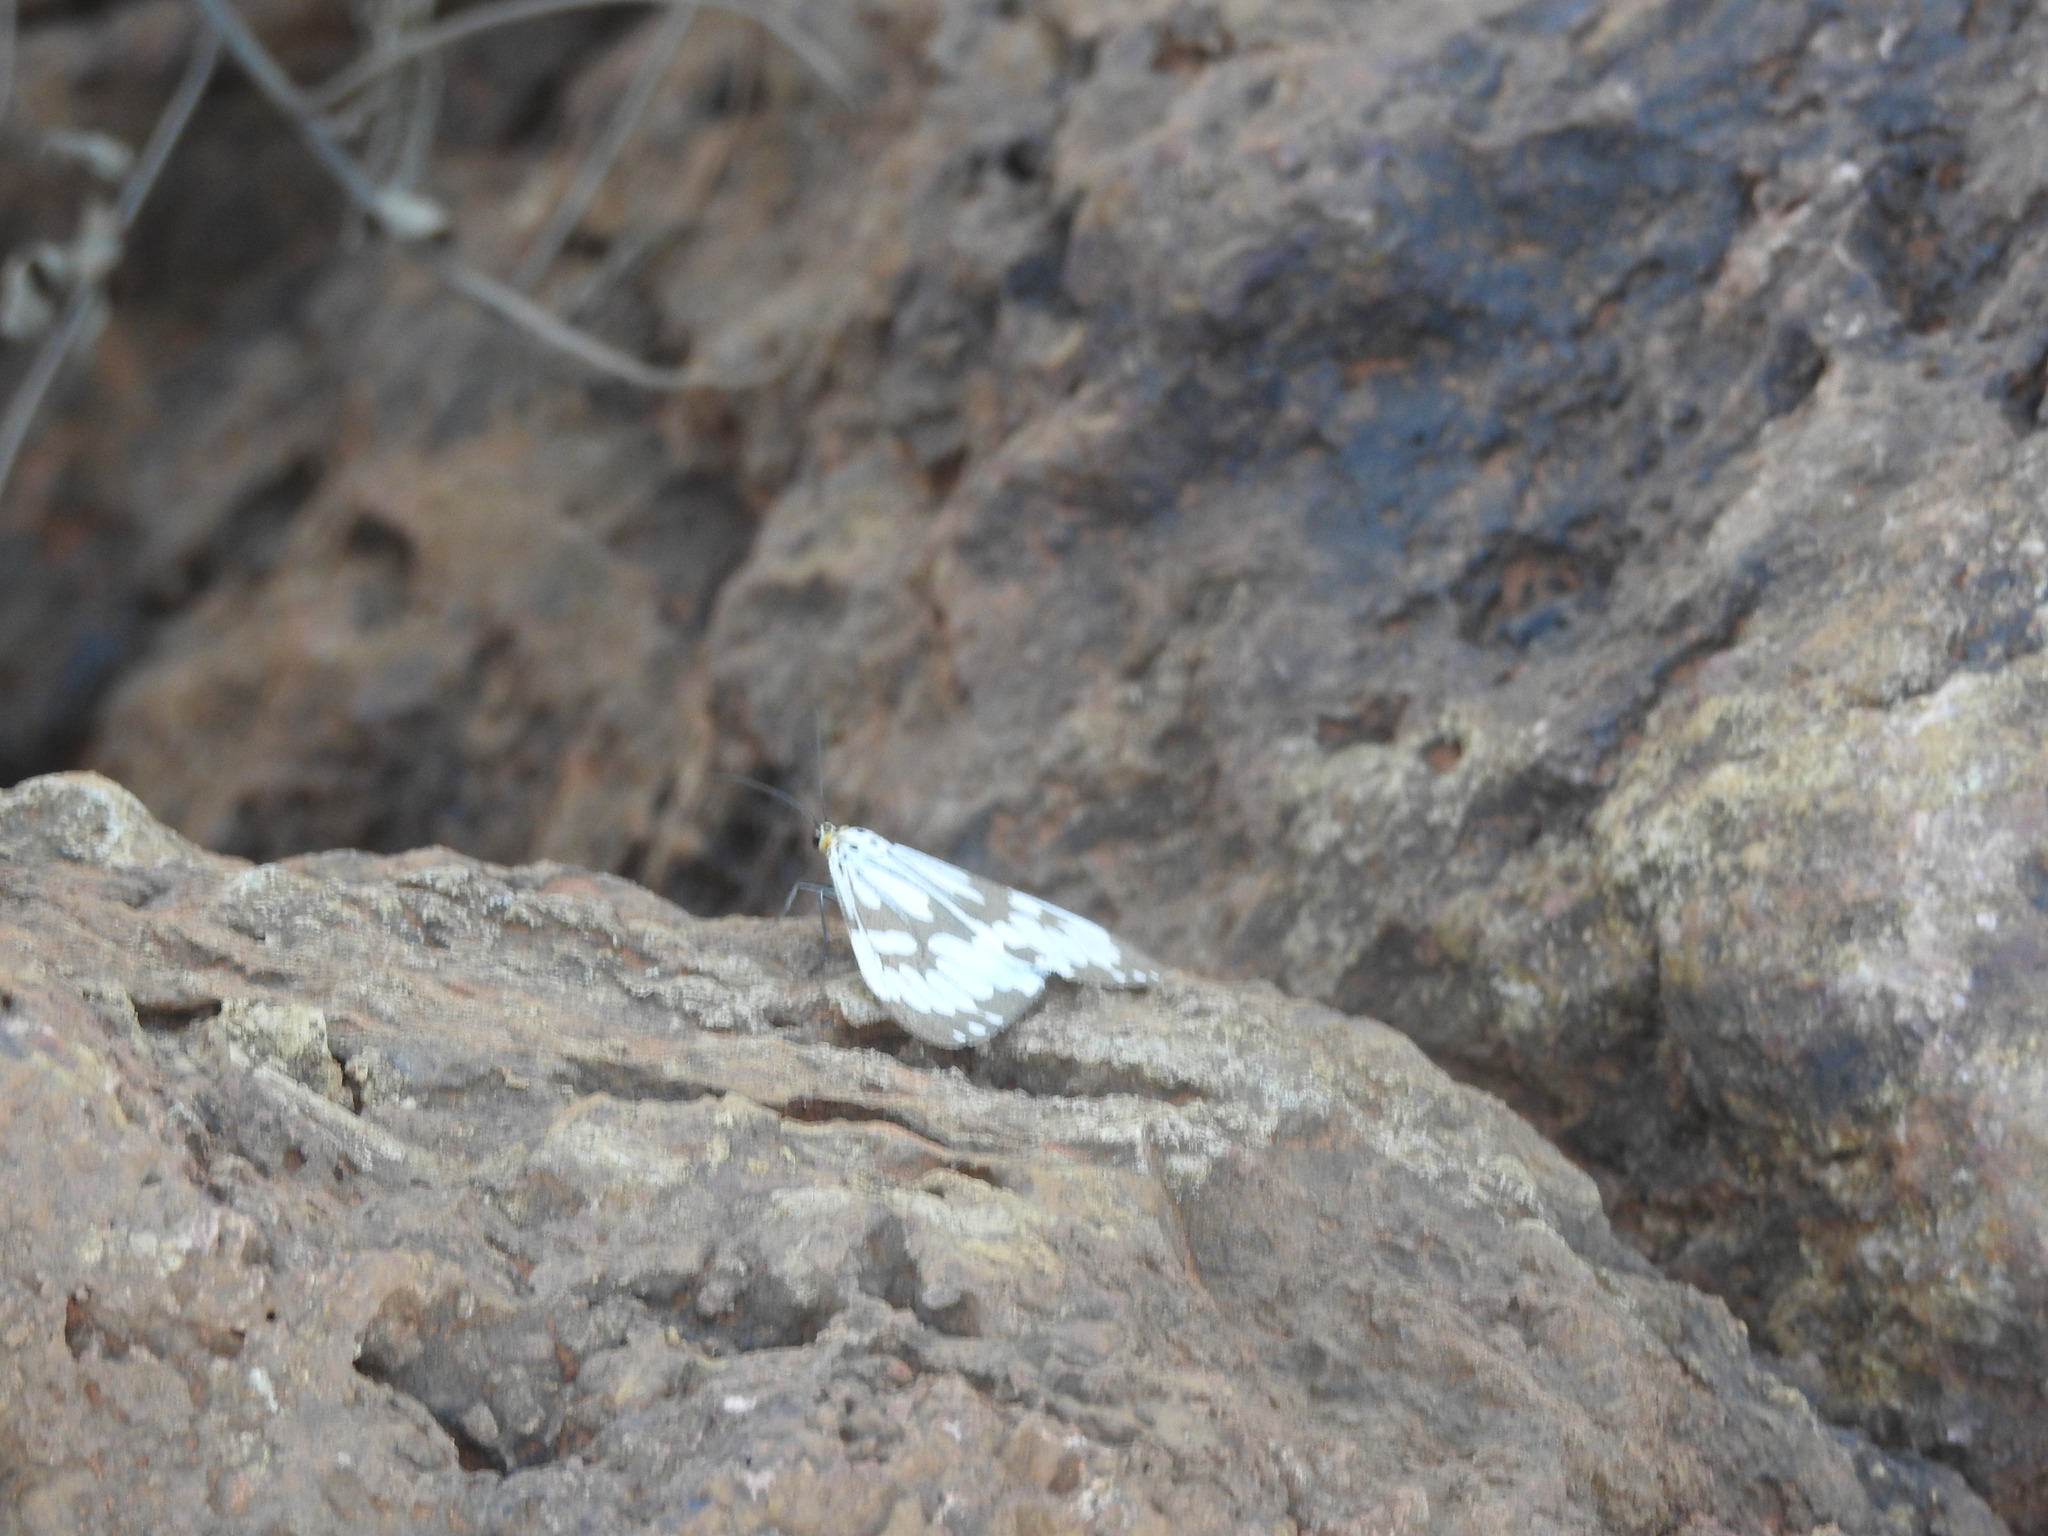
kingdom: Animalia
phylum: Arthropoda
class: Insecta
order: Lepidoptera
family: Erebidae
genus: Nyctemera
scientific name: Nyctemera adversata
